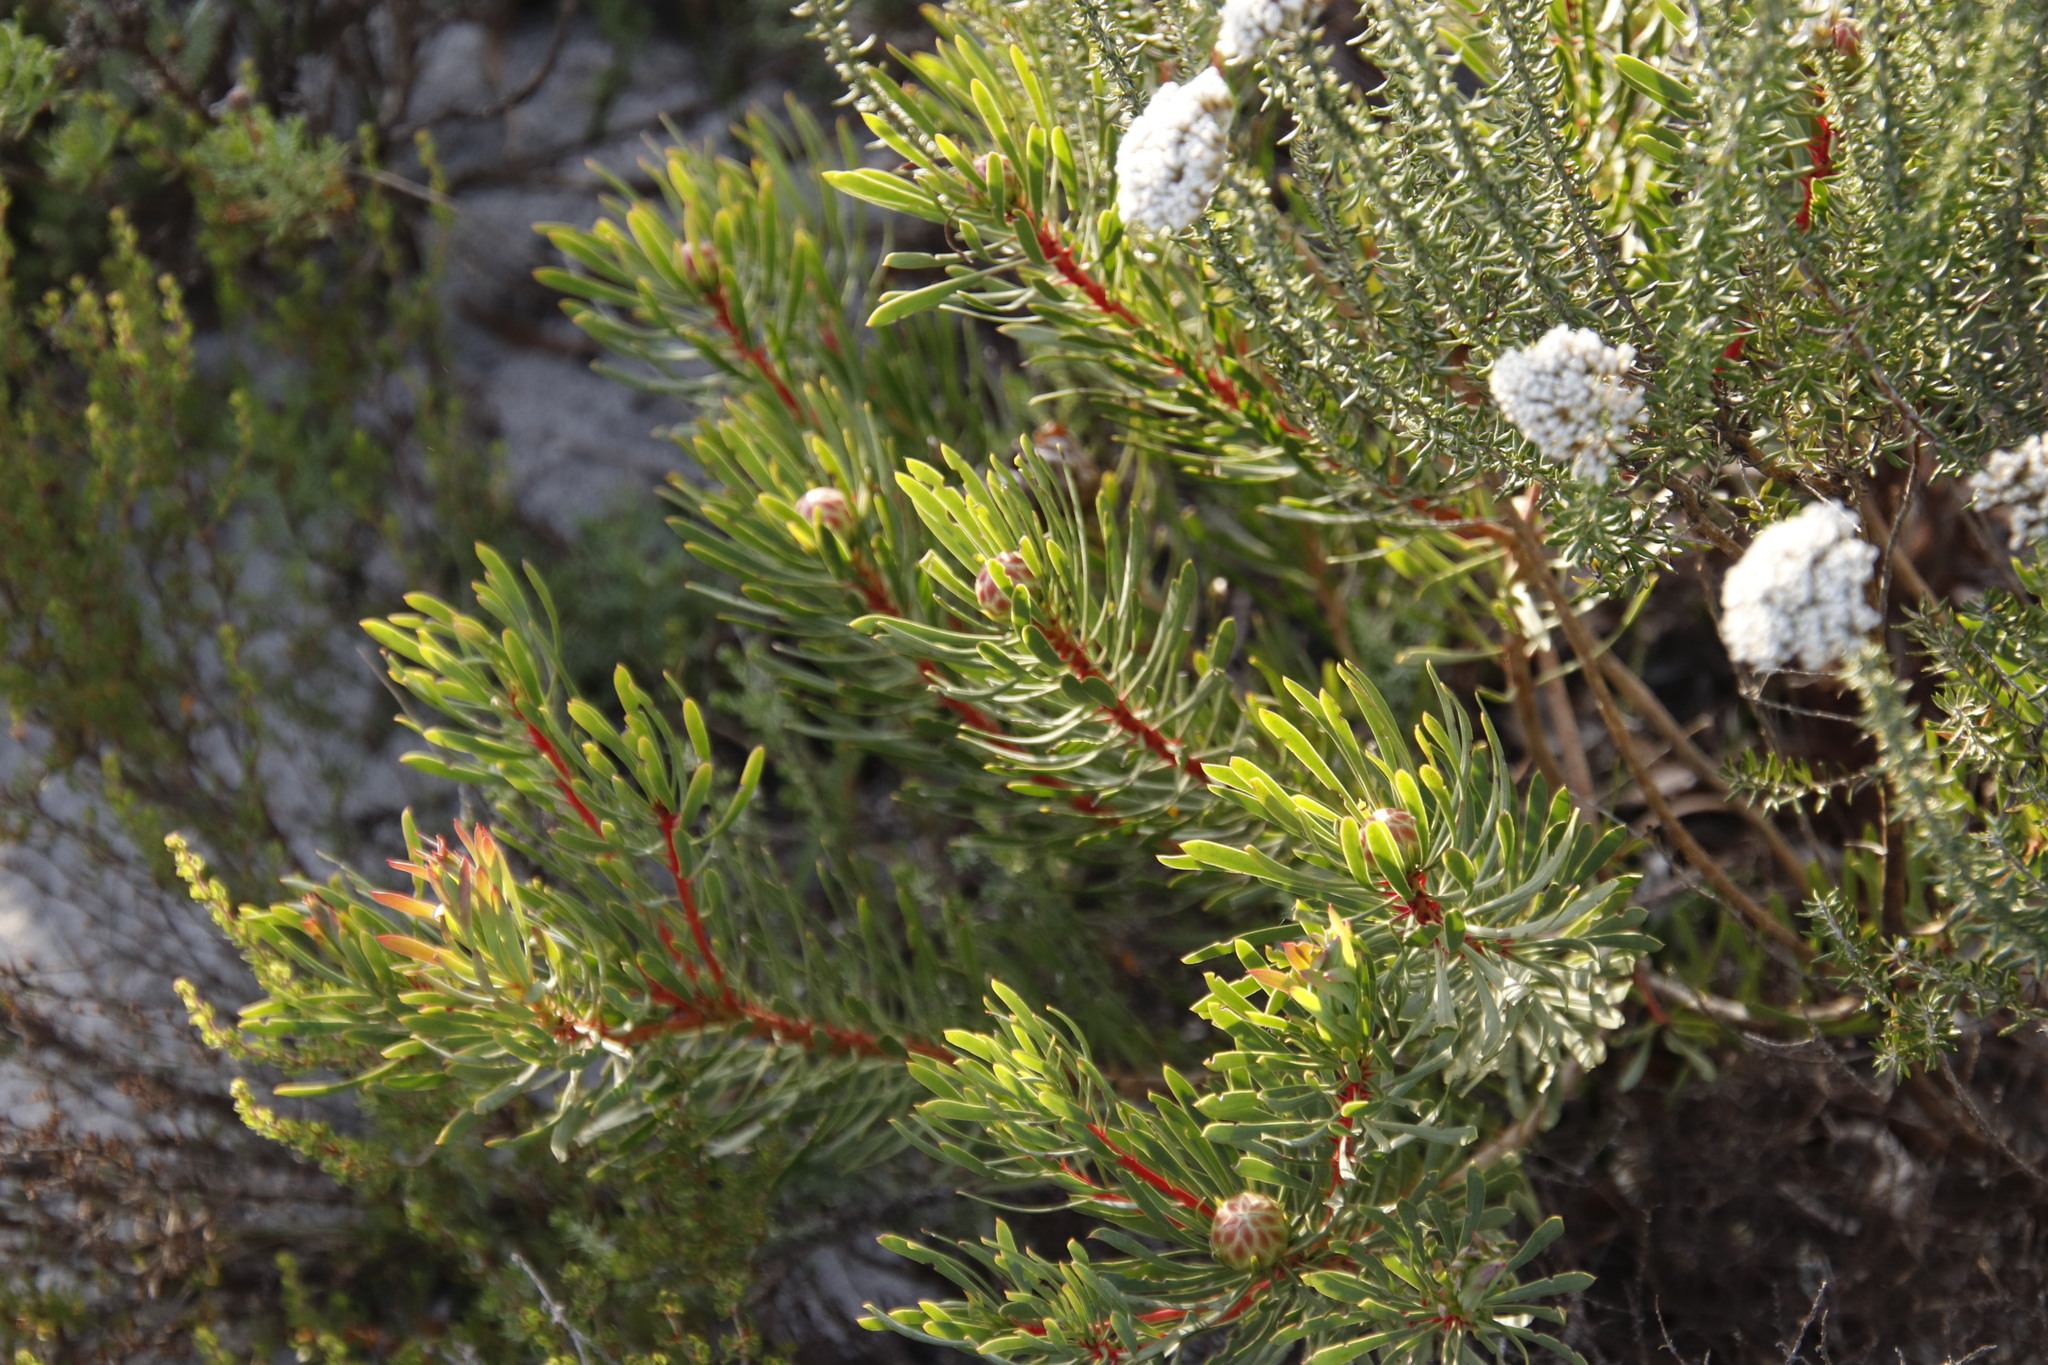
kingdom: Plantae
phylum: Tracheophyta
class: Magnoliopsida
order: Proteales
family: Proteaceae
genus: Protea
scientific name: Protea scolymocephala
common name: Thistle sugarbush
